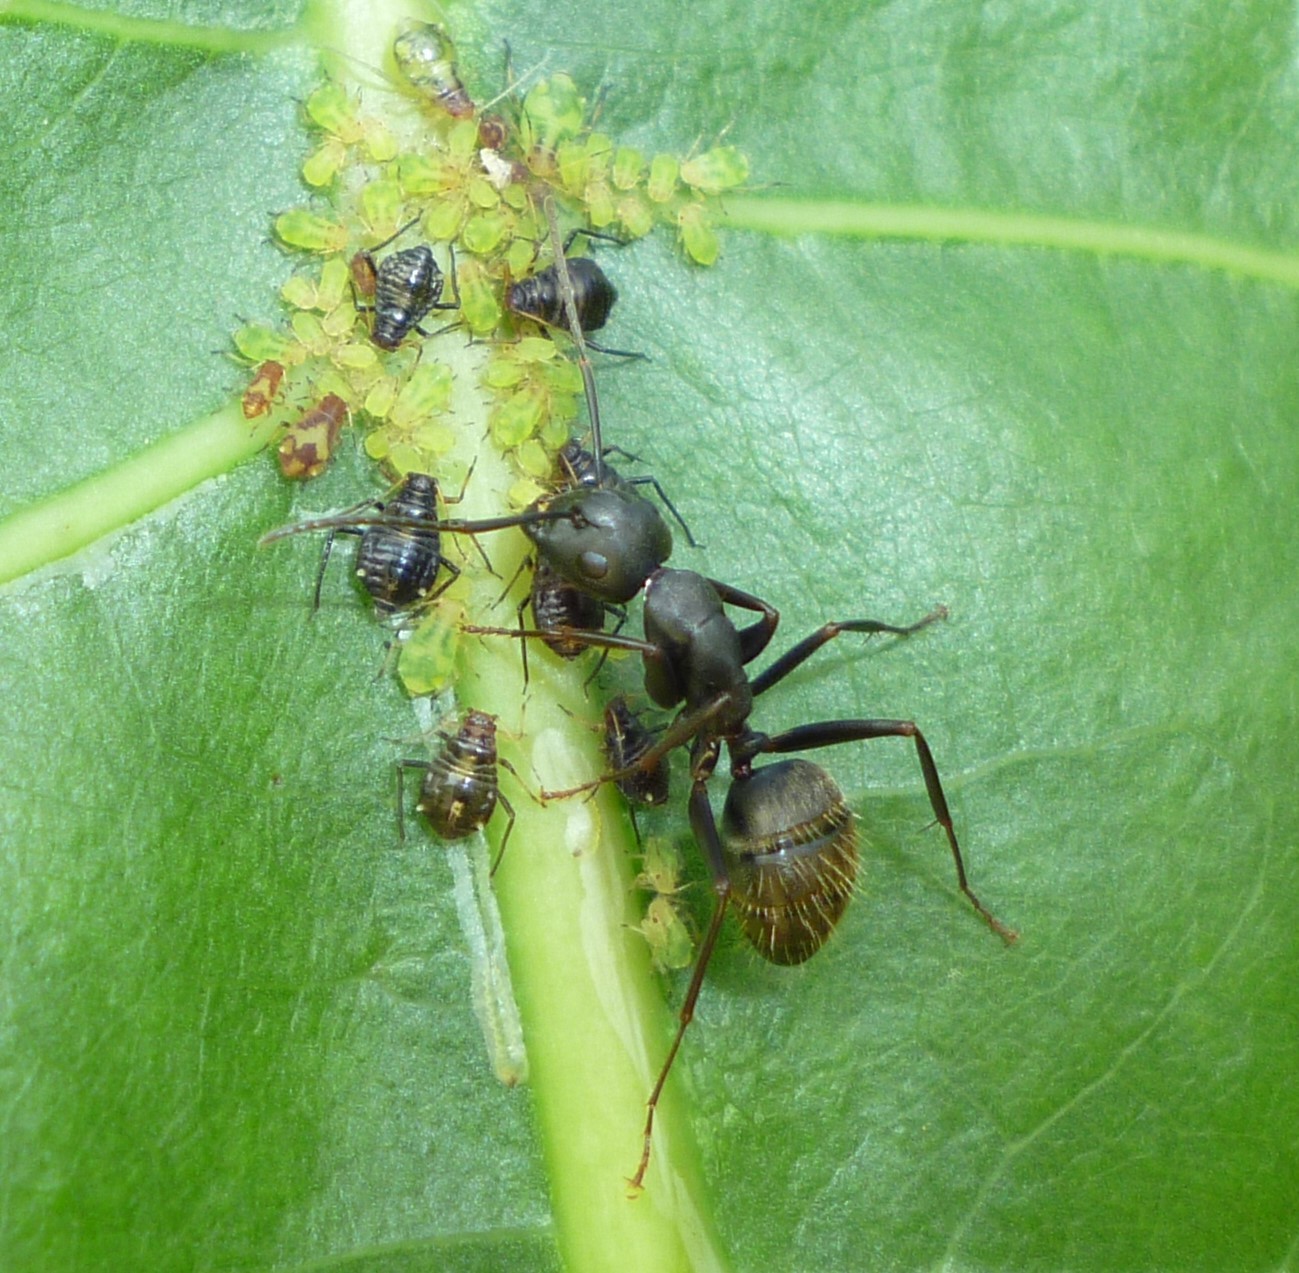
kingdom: Animalia
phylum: Arthropoda
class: Insecta
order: Hymenoptera
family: Formicidae
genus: Camponotus
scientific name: Camponotus pennsylvanicus
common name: Black carpenter ant
